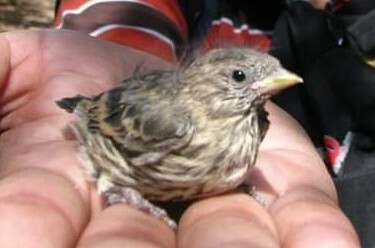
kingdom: Animalia
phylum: Chordata
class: Aves
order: Passeriformes
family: Fringillidae
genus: Haemorhous
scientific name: Haemorhous mexicanus
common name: House finch
